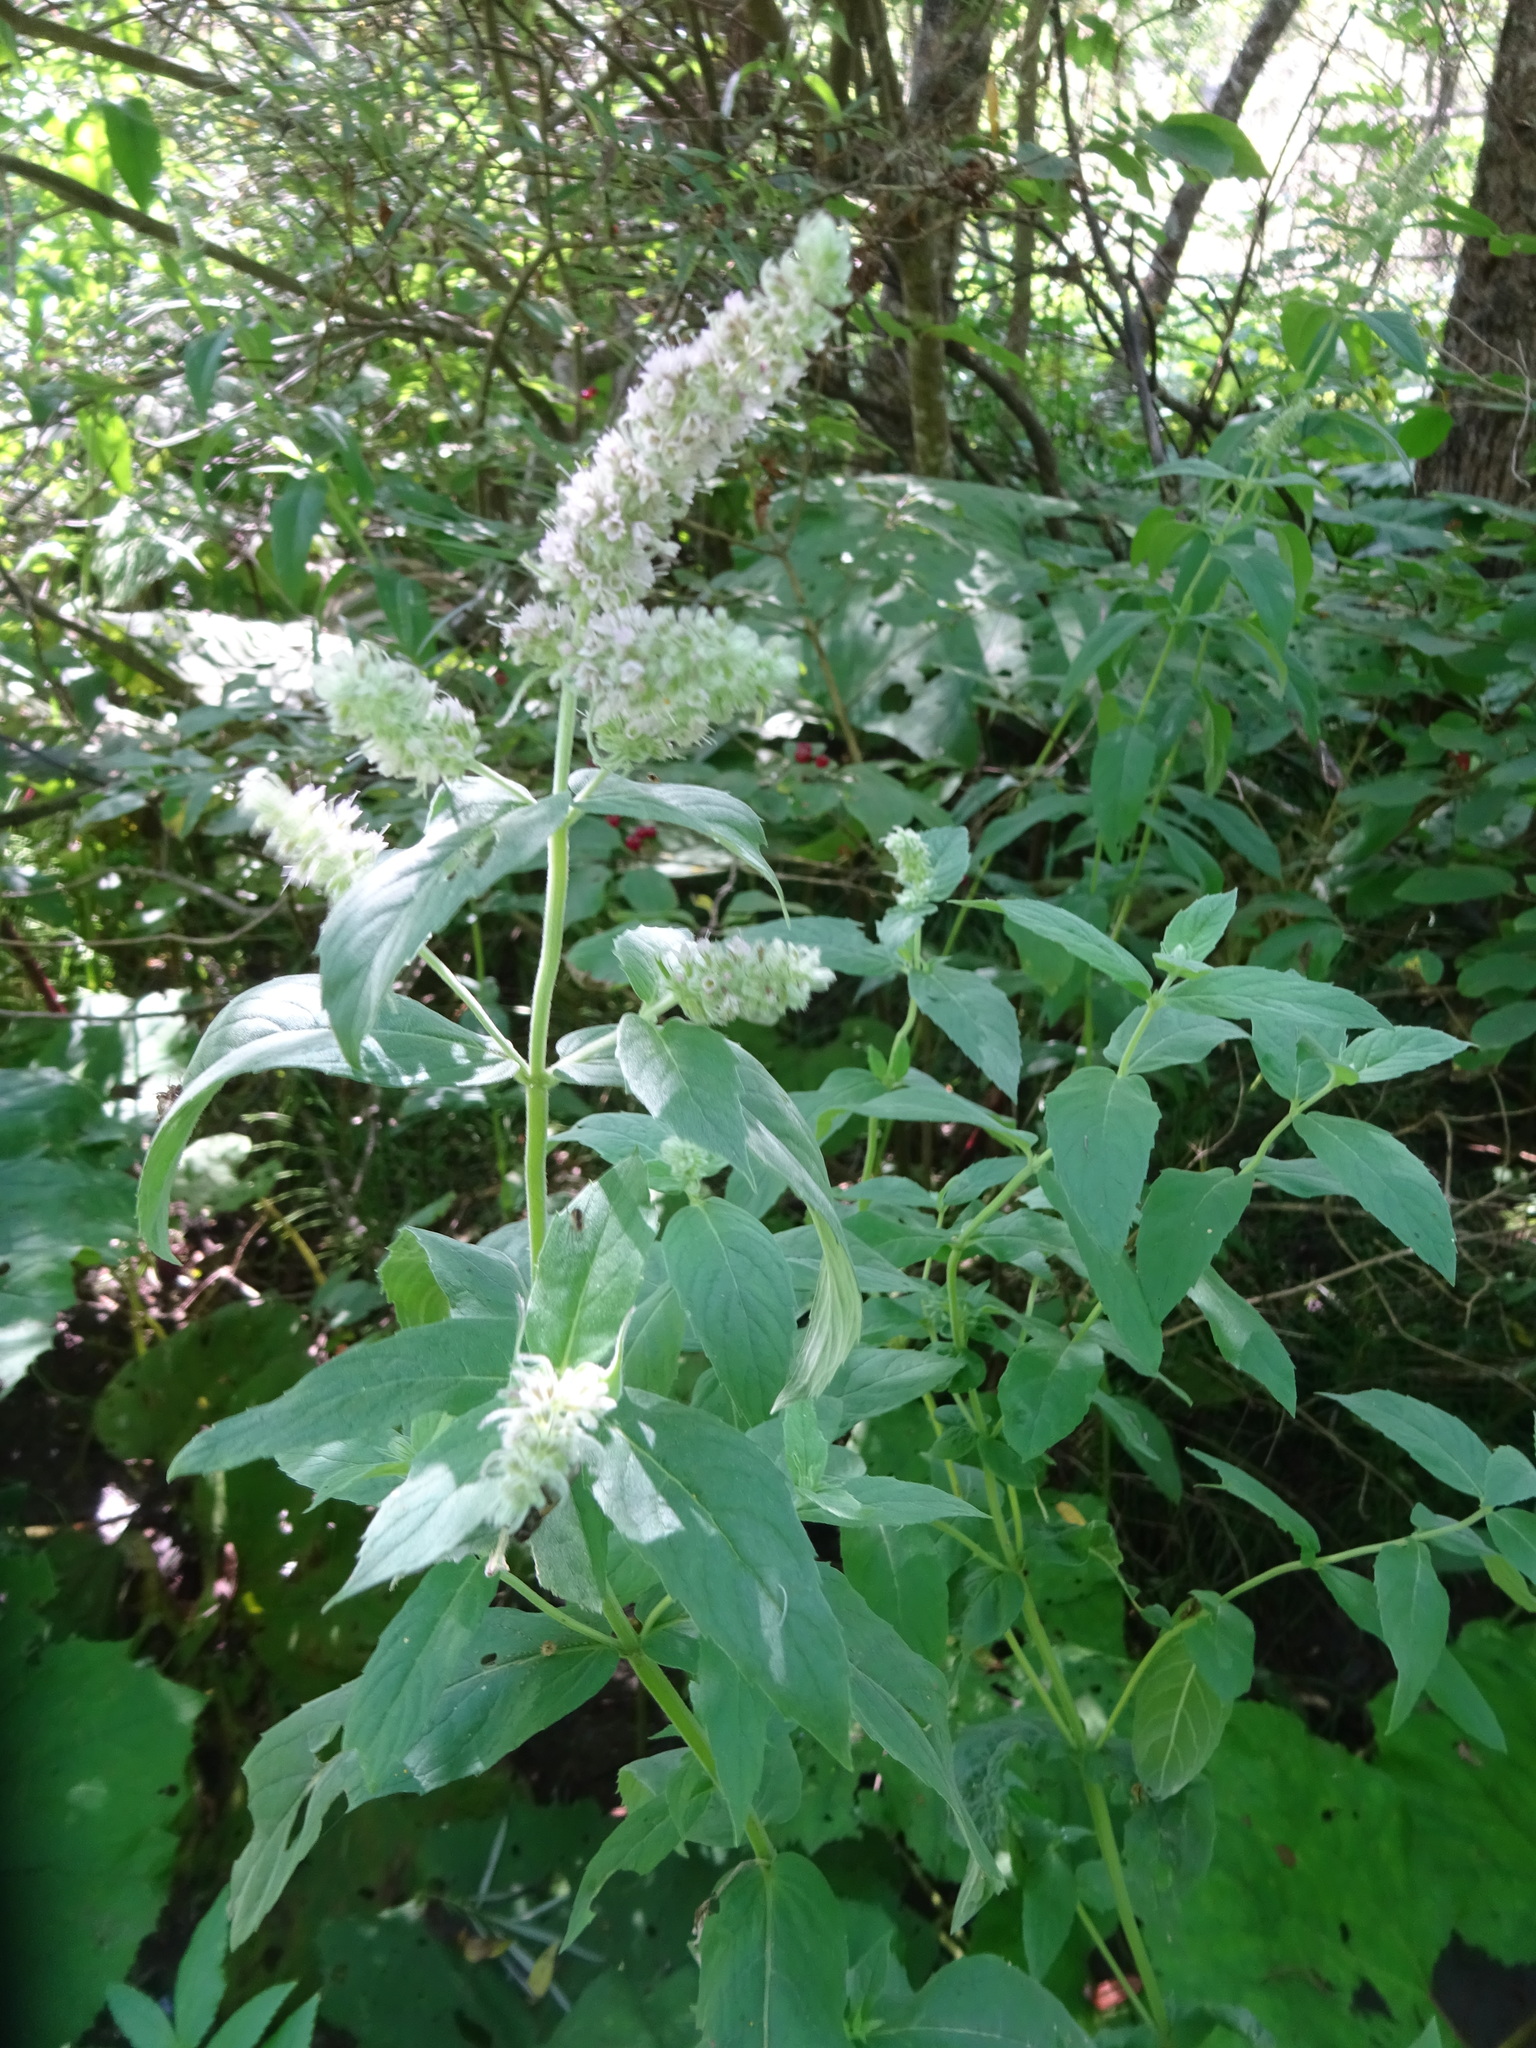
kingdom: Plantae
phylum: Tracheophyta
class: Magnoliopsida
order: Lamiales
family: Lamiaceae
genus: Mentha
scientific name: Mentha longifolia
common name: Horse mint
